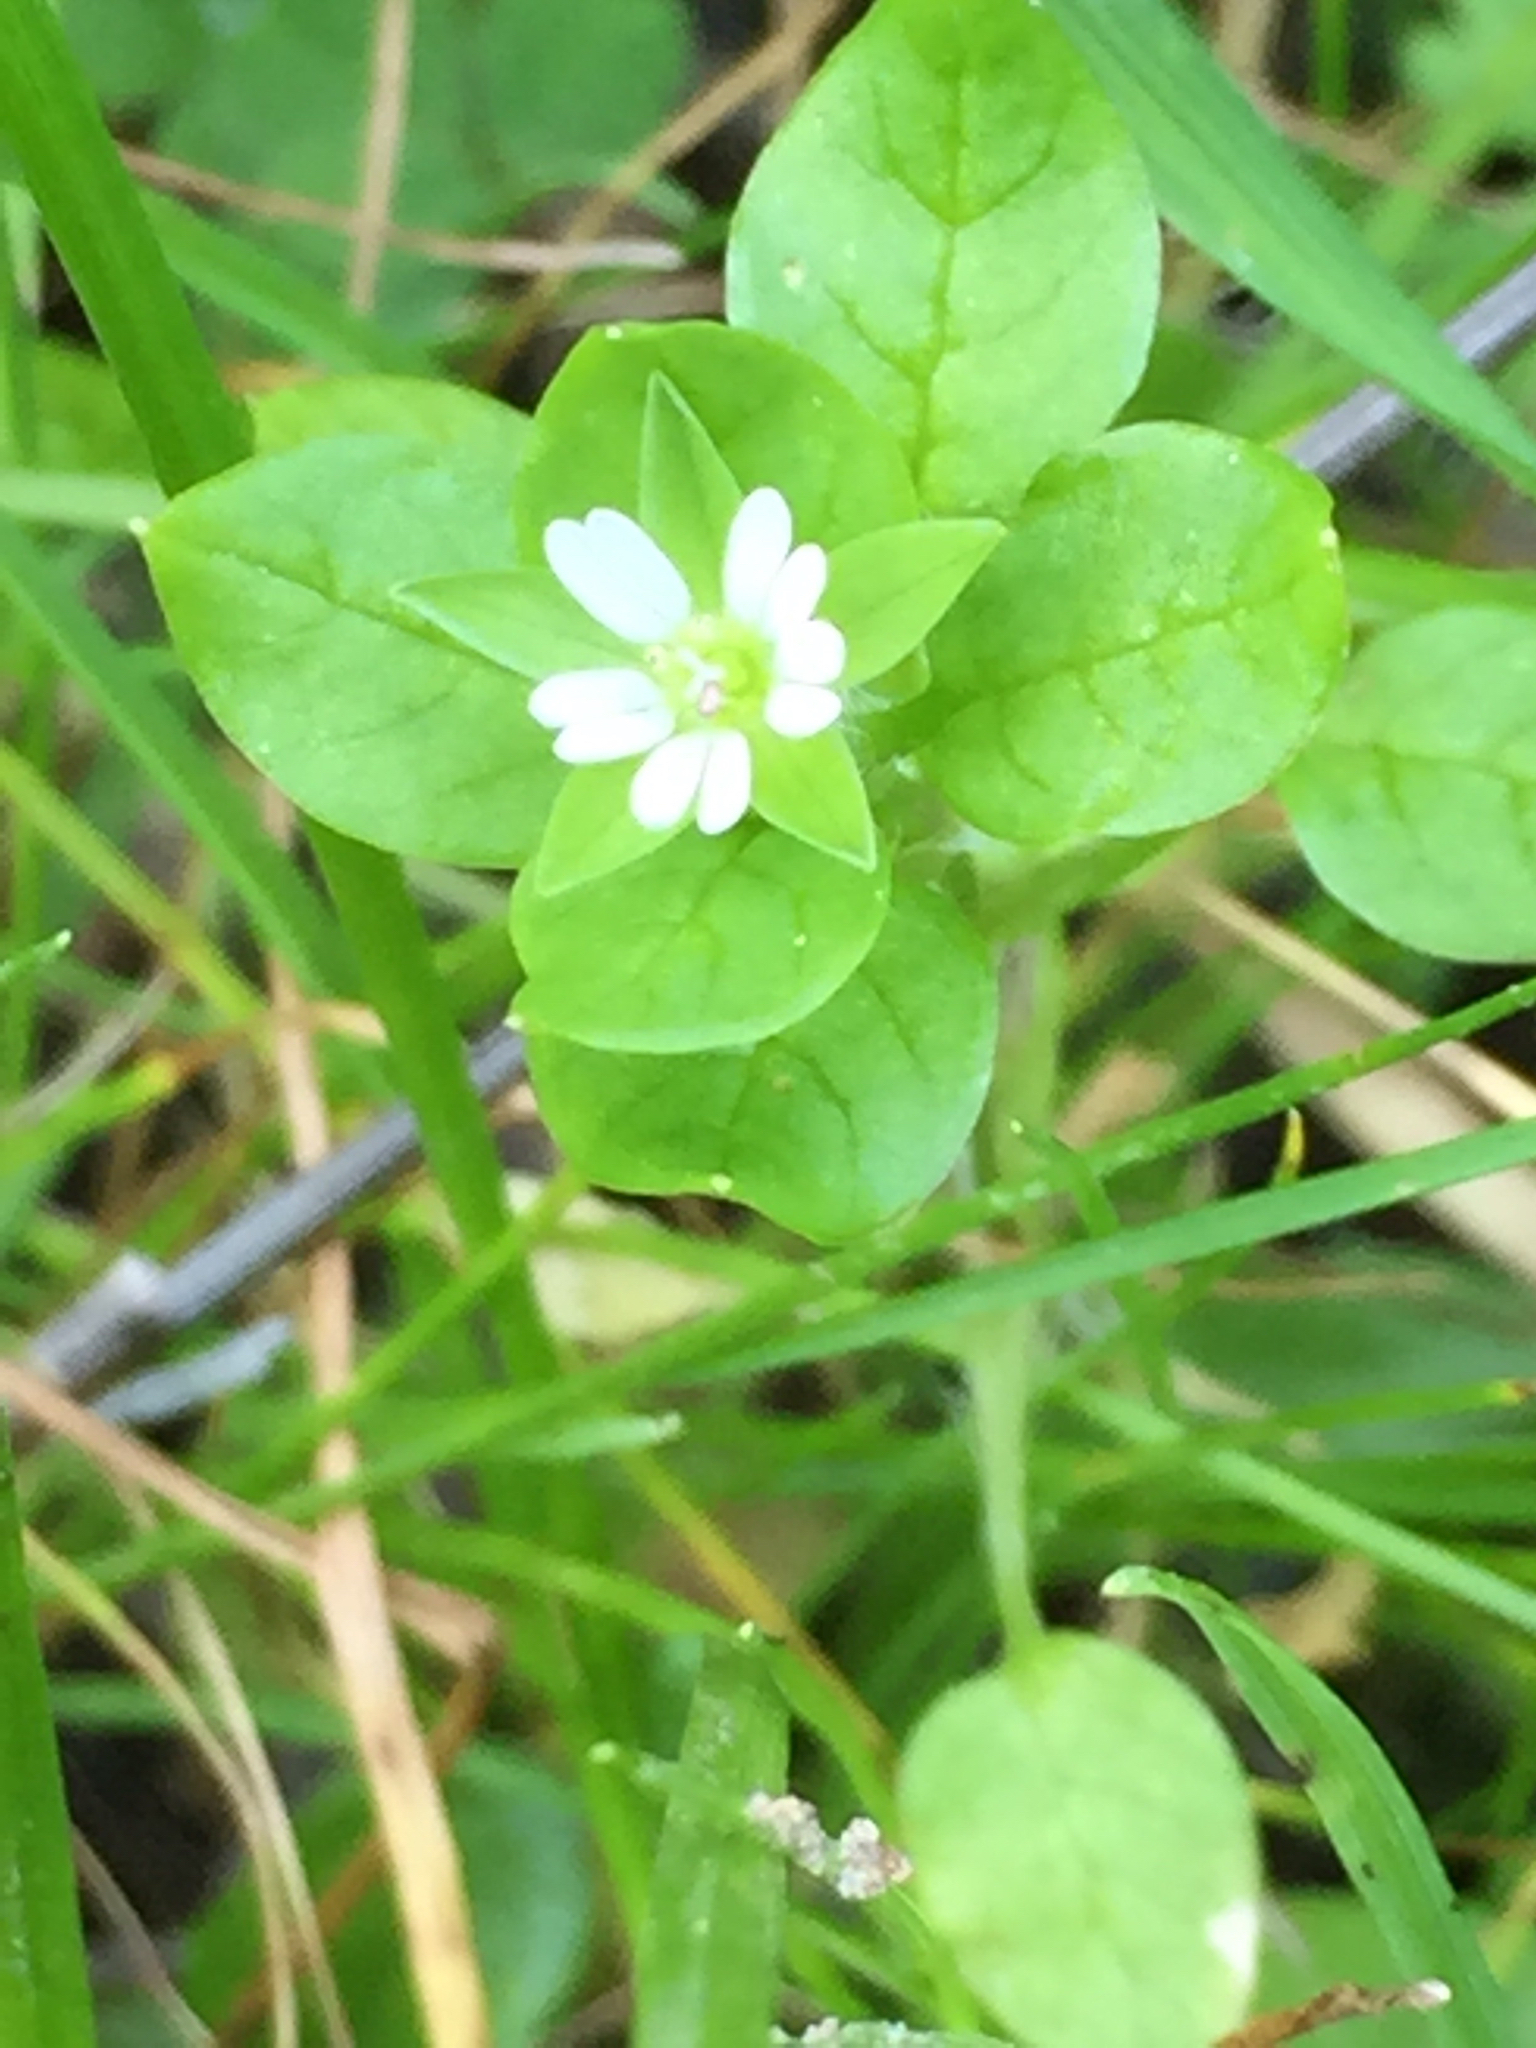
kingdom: Plantae
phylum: Tracheophyta
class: Magnoliopsida
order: Caryophyllales
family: Caryophyllaceae
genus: Stellaria
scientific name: Stellaria media
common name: Common chickweed
